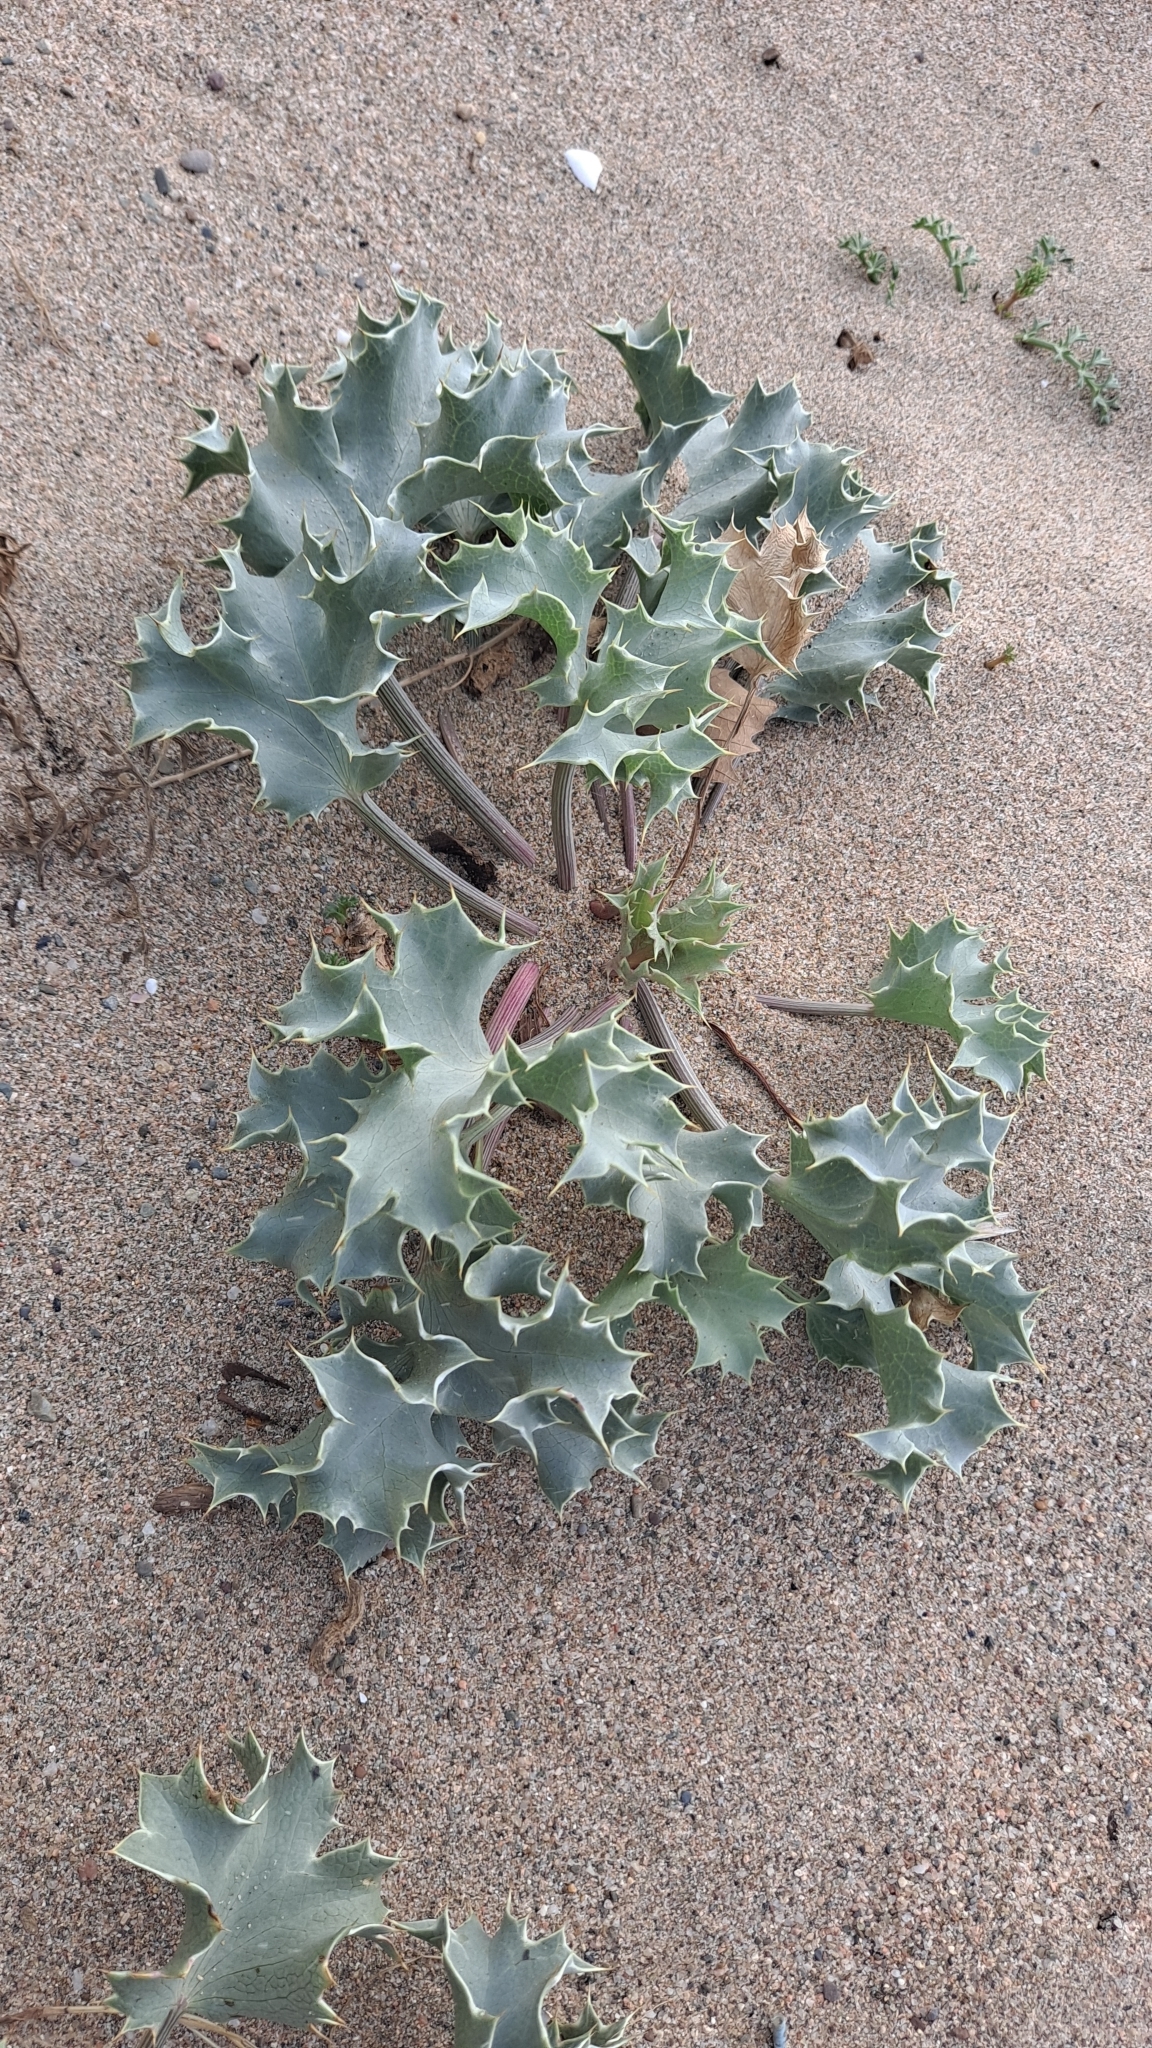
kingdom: Plantae
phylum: Tracheophyta
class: Magnoliopsida
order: Apiales
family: Apiaceae
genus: Eryngium
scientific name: Eryngium maritimum
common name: Sea-holly
